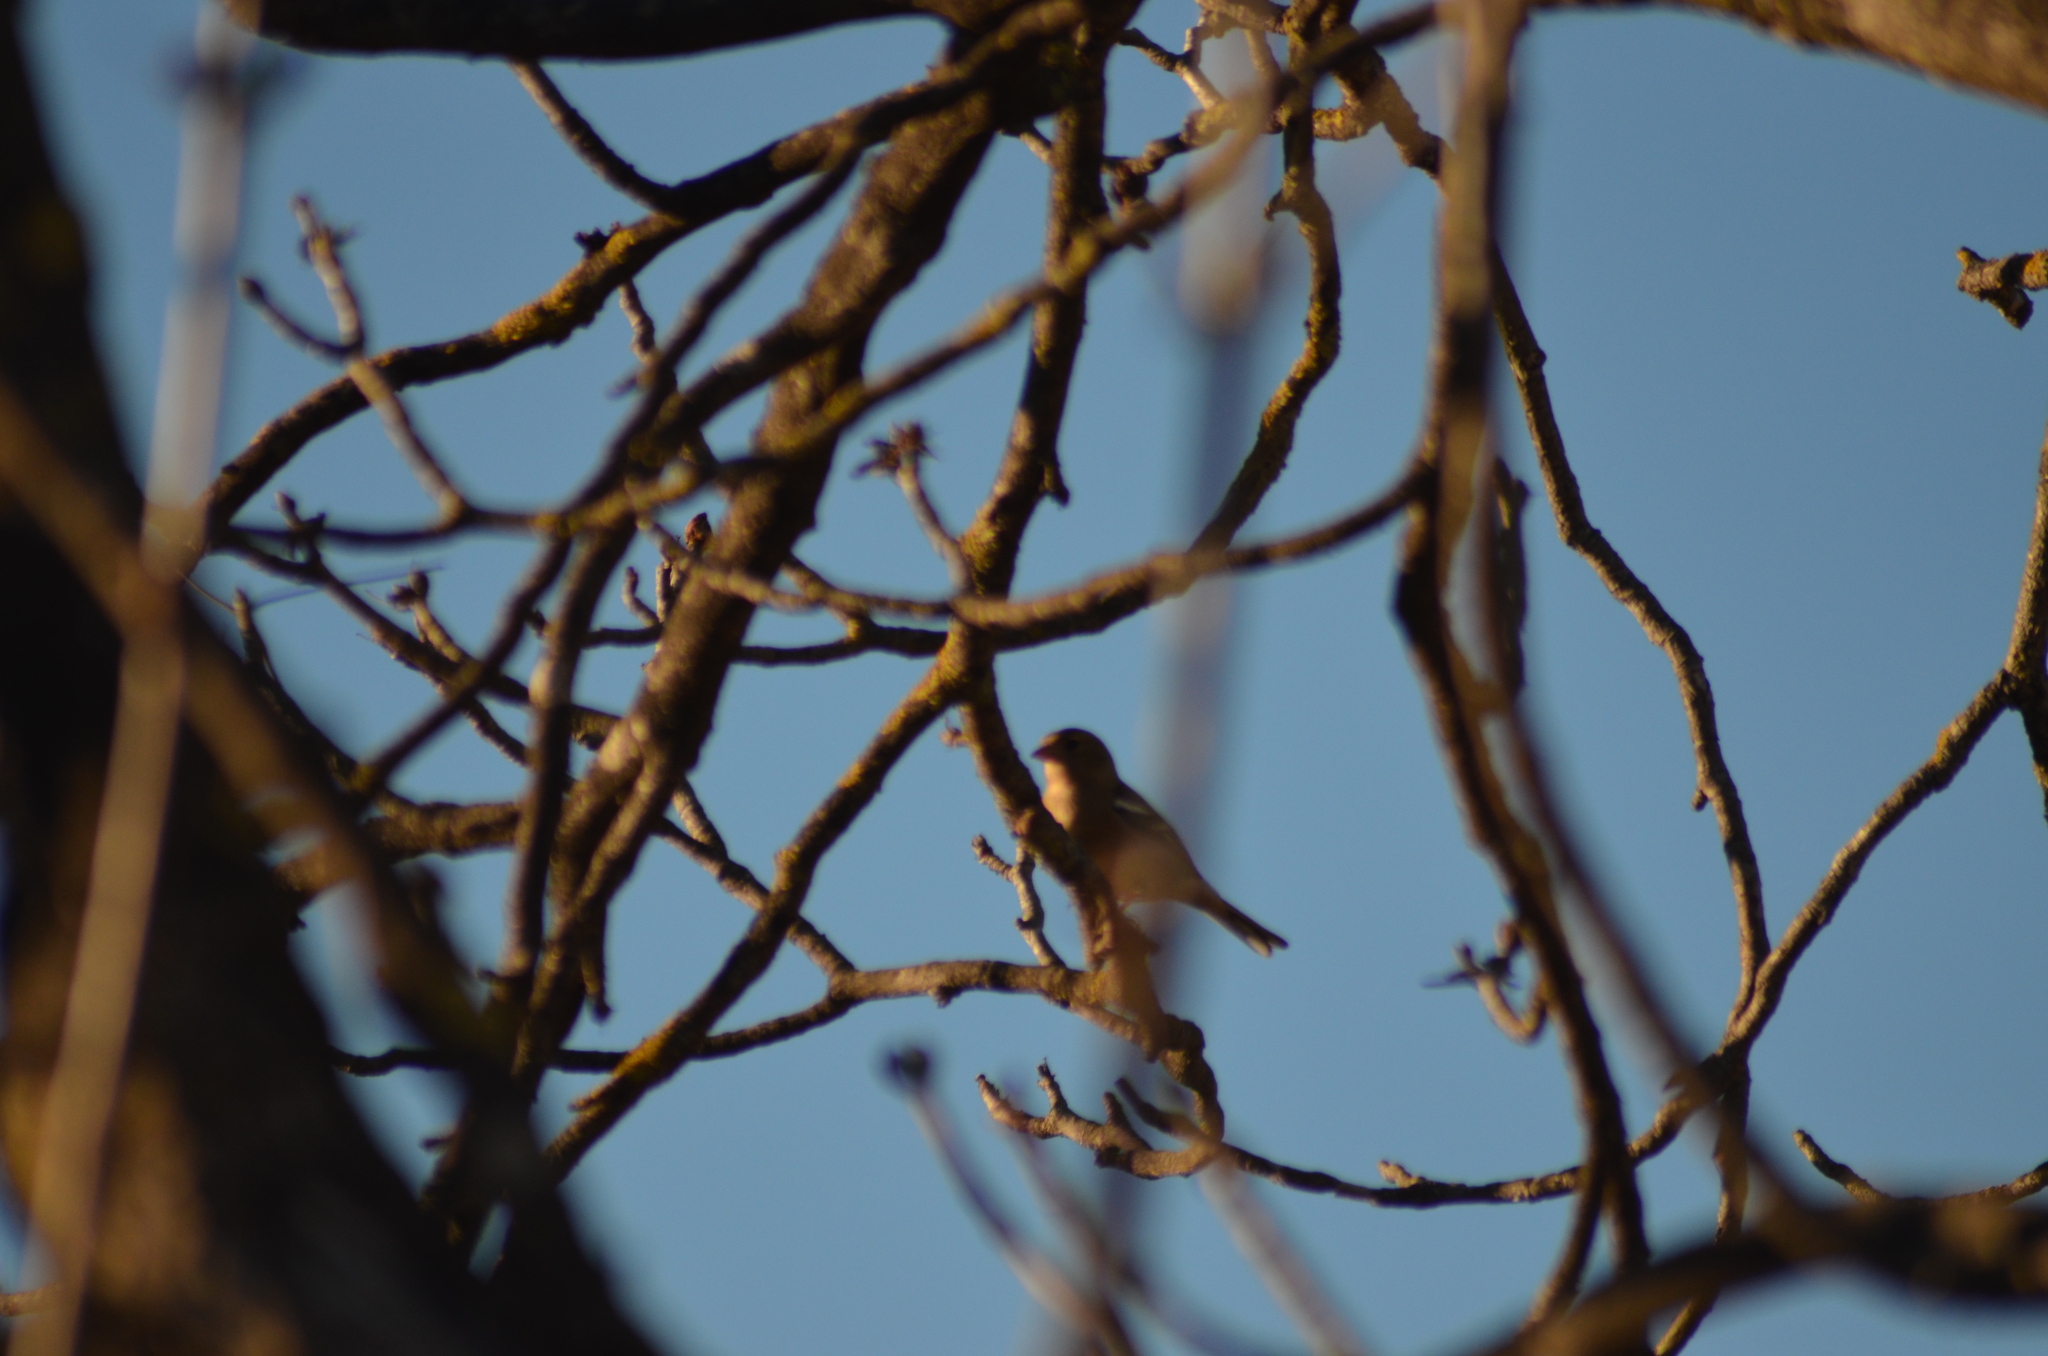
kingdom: Animalia
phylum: Chordata
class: Aves
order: Passeriformes
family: Fringillidae
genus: Fringilla
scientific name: Fringilla coelebs
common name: Common chaffinch
